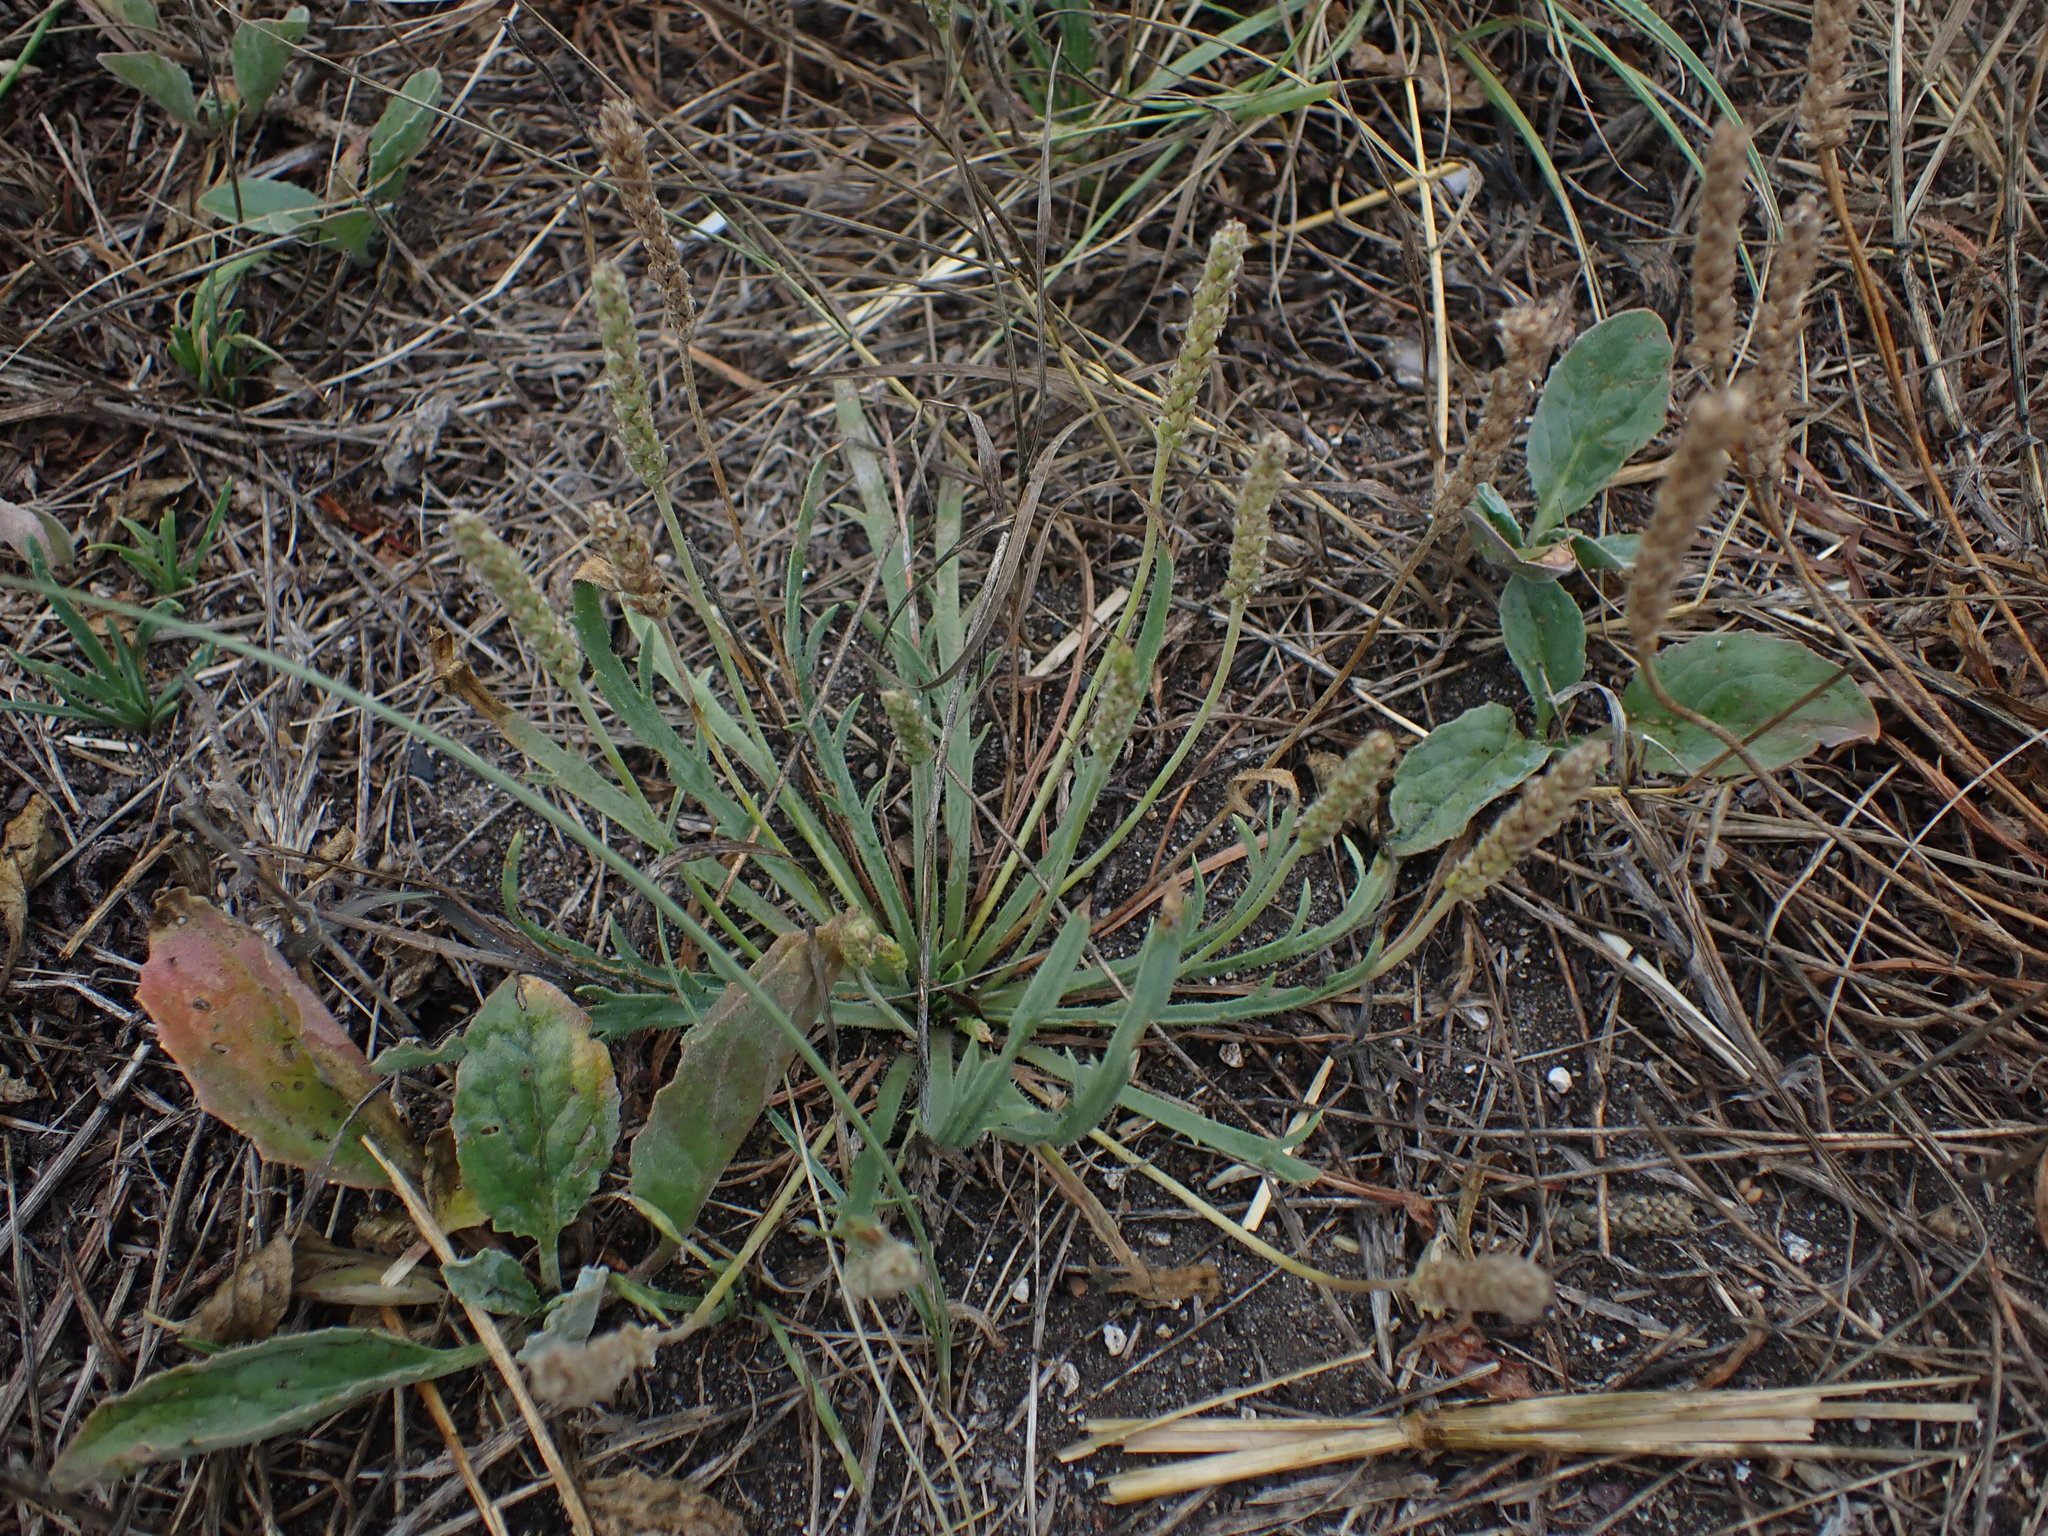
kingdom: Plantae
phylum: Tracheophyta
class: Magnoliopsida
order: Lamiales
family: Plantaginaceae
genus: Plantago
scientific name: Plantago coronopus
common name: Buck's-horn plantain
